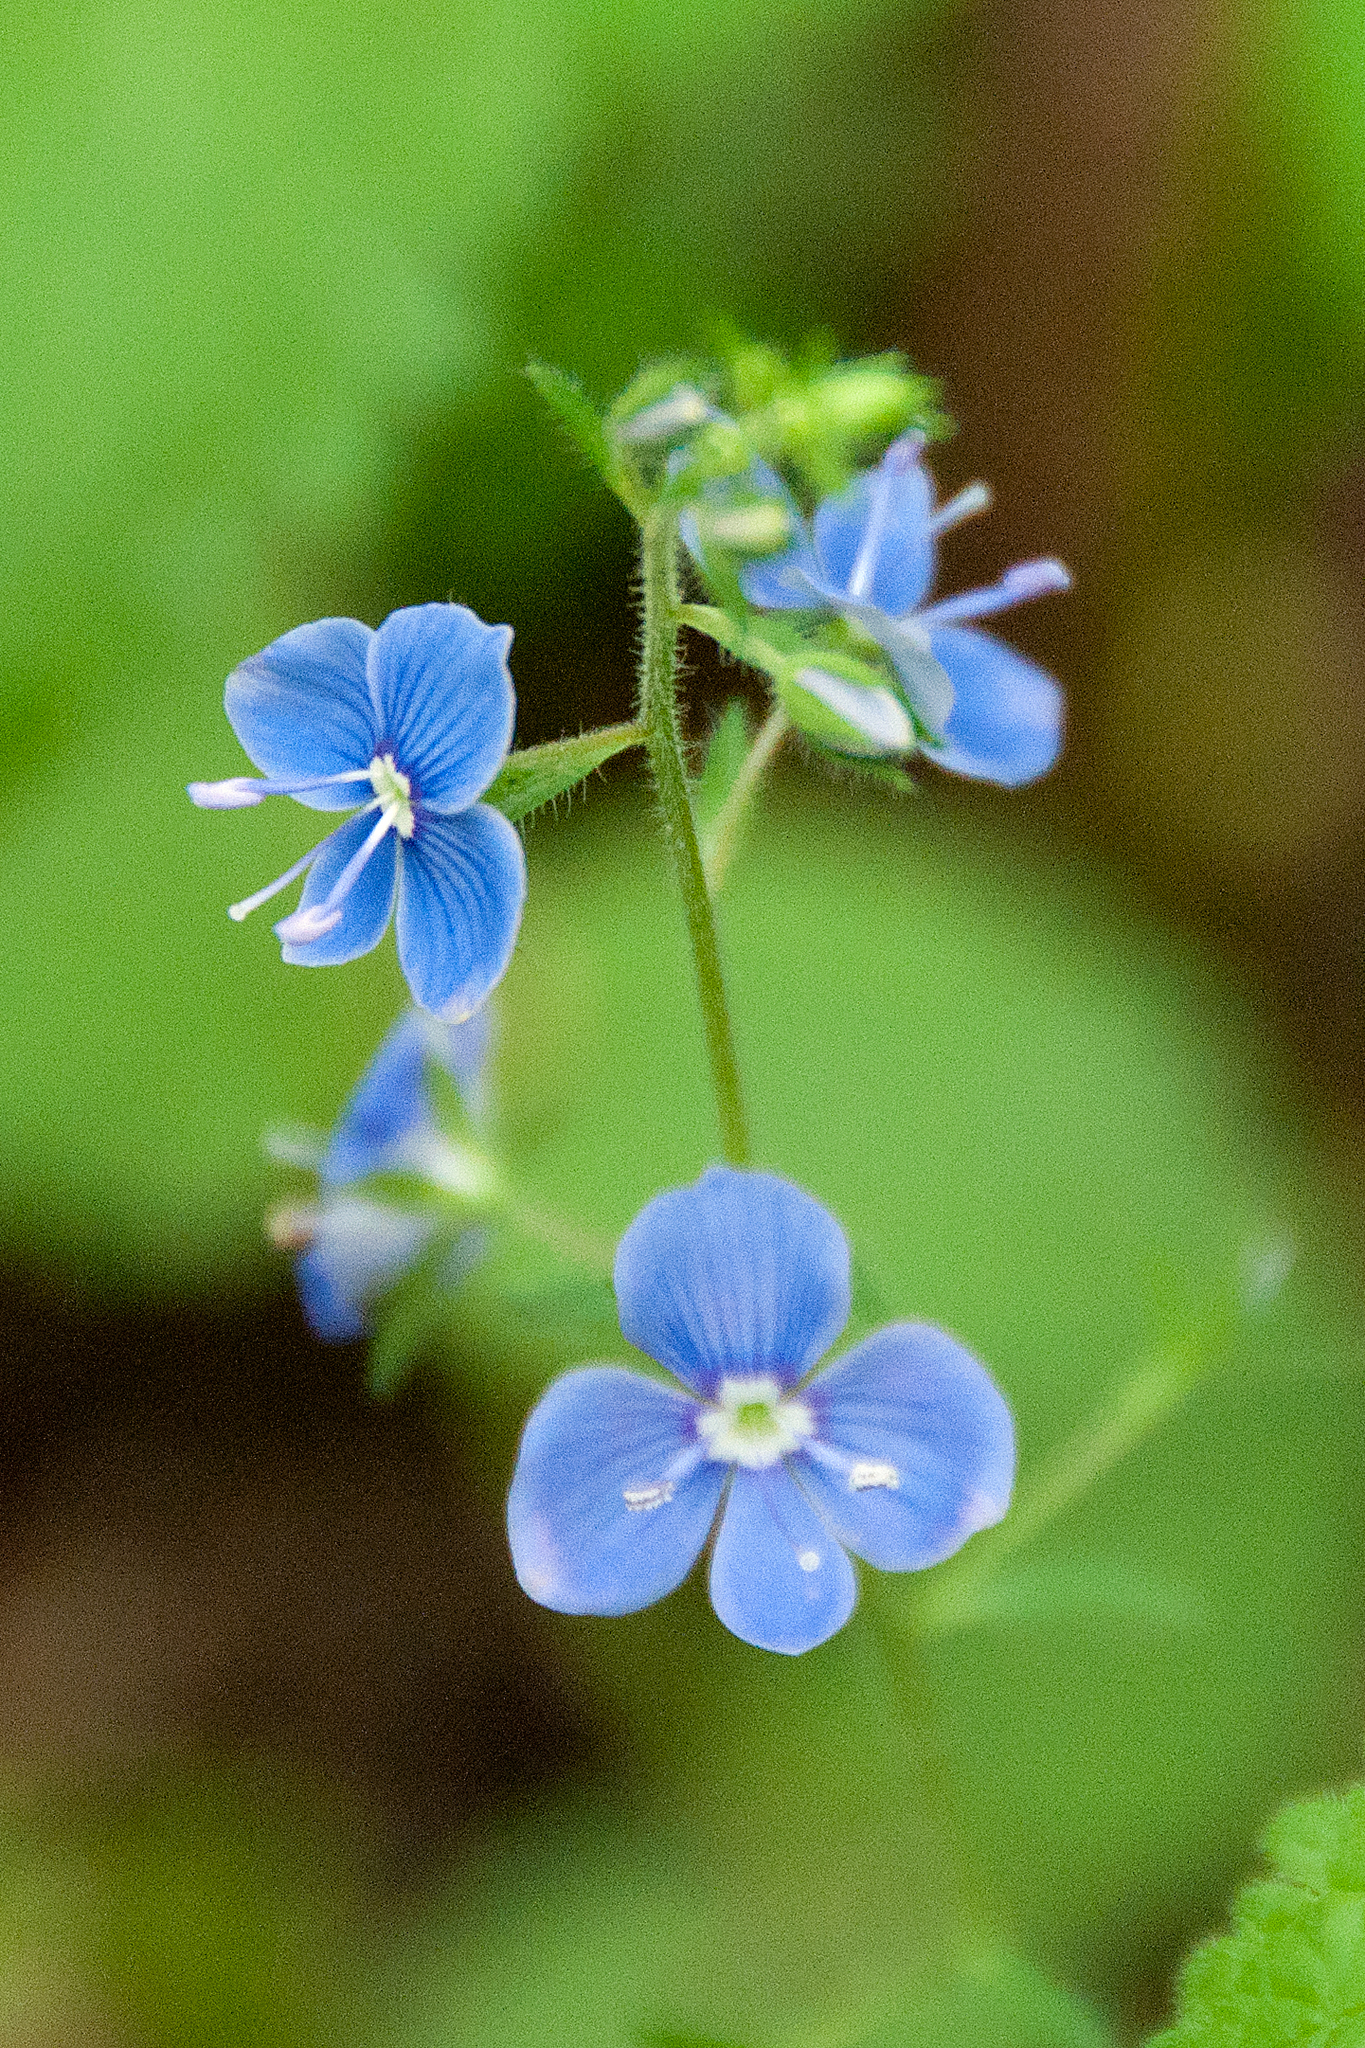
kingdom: Plantae
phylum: Tracheophyta
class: Magnoliopsida
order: Lamiales
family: Plantaginaceae
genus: Veronica
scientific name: Veronica chamaedrys
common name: Germander speedwell
